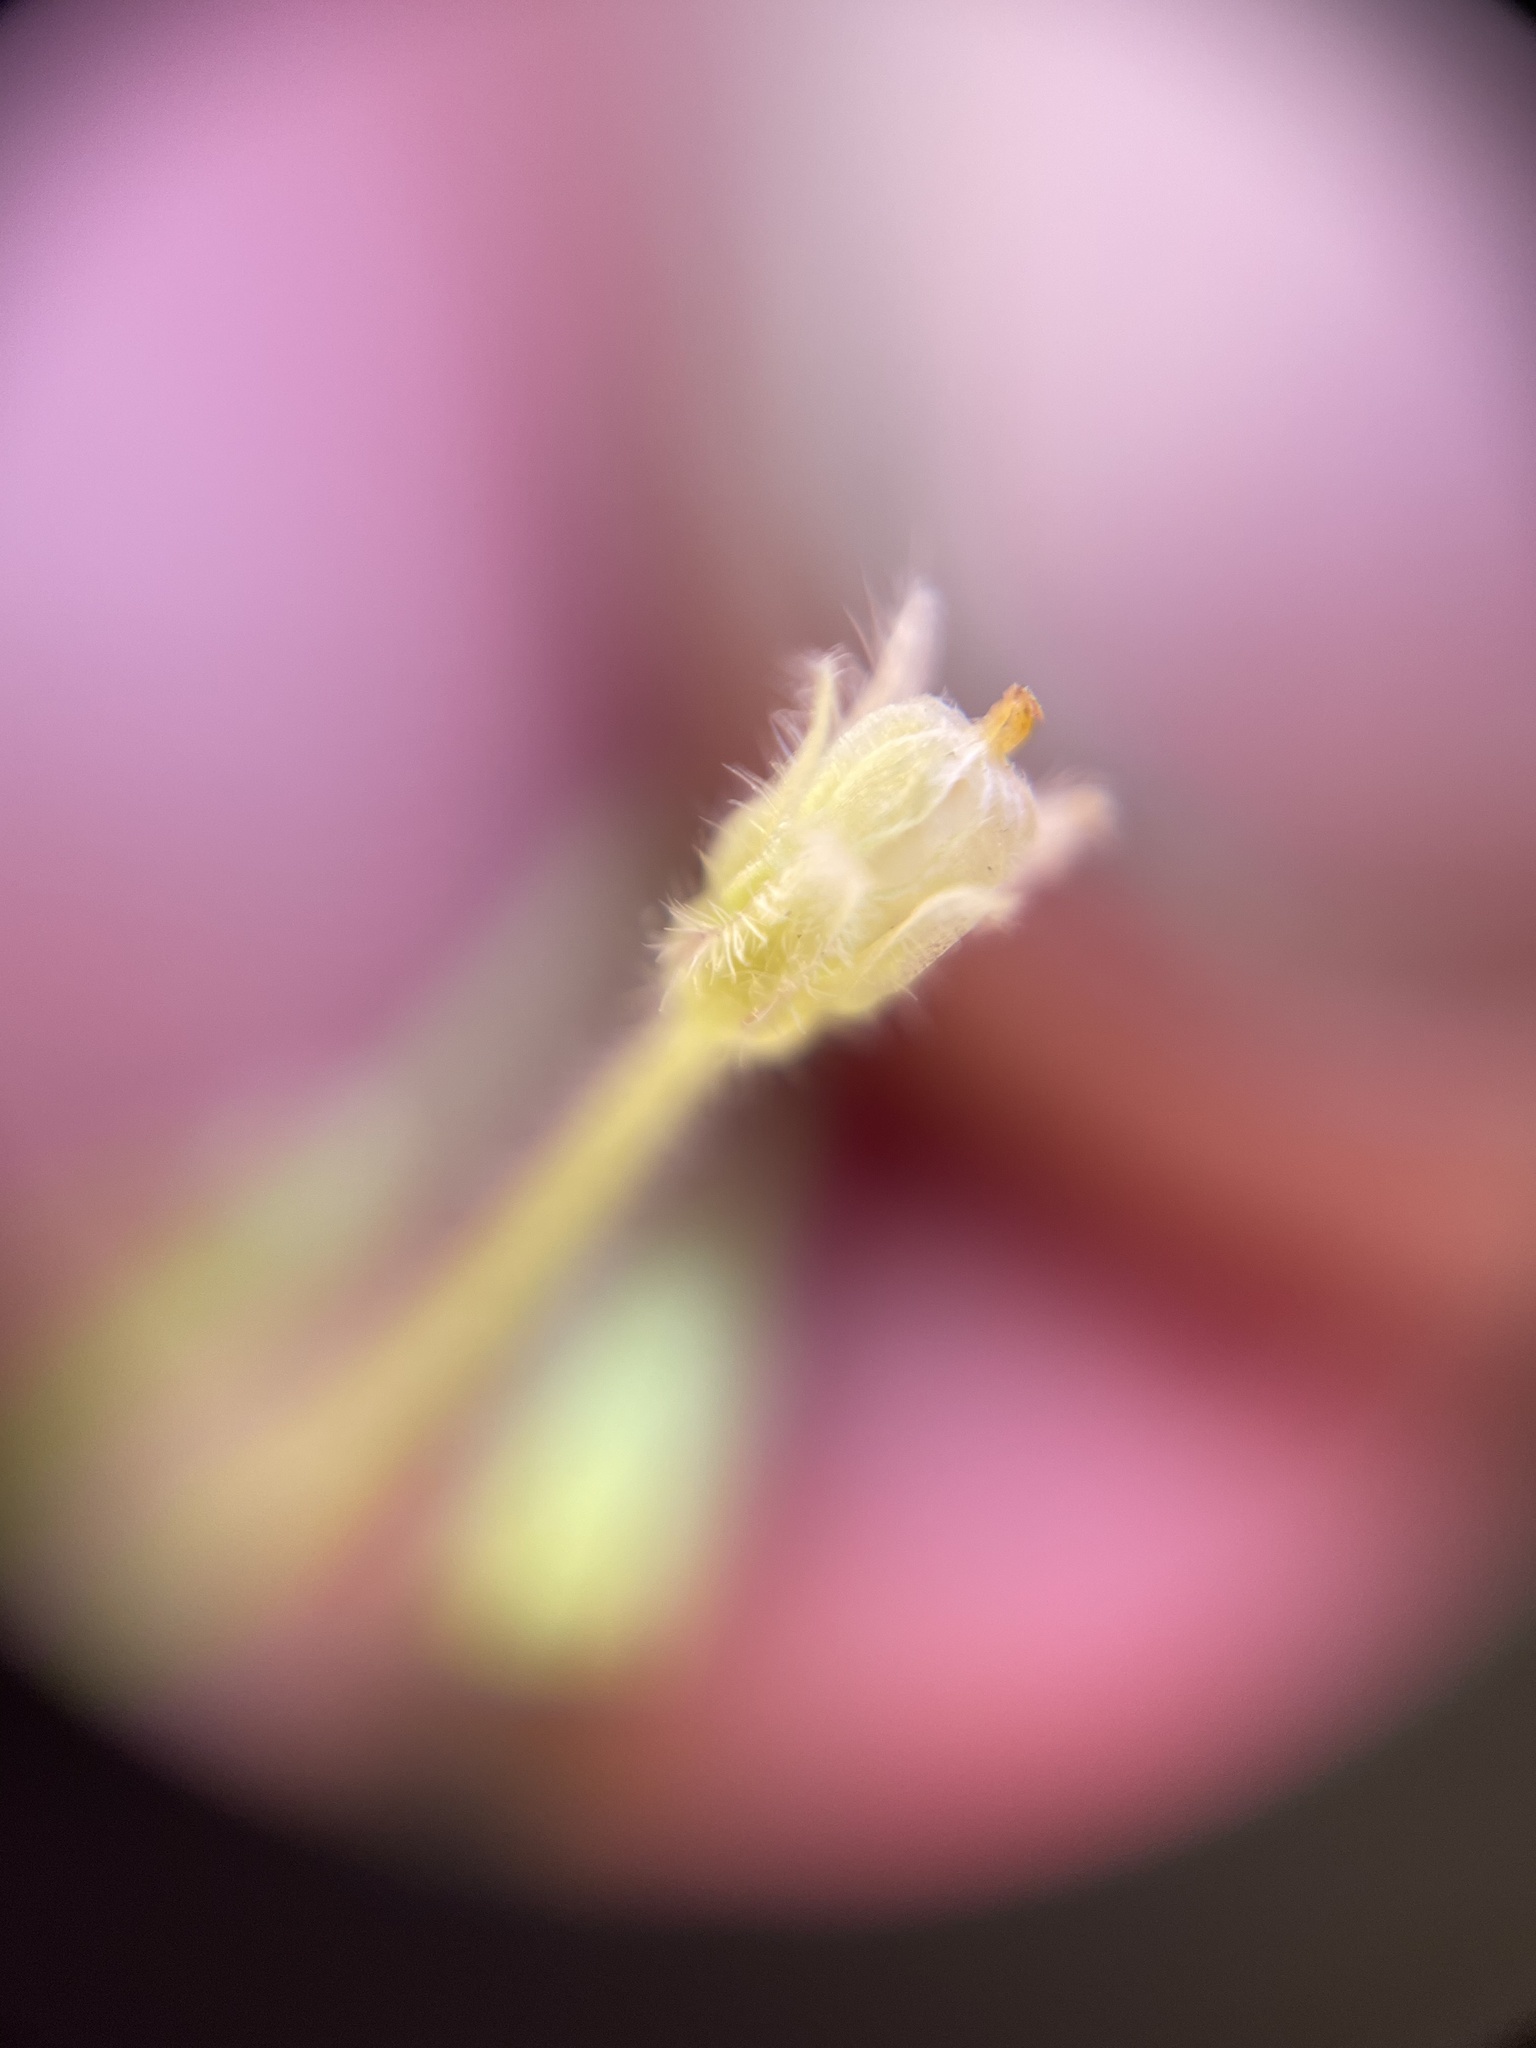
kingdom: Plantae
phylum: Tracheophyta
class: Magnoliopsida
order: Oxalidales
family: Oxalidaceae
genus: Oxalis
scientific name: Oxalis laxa
